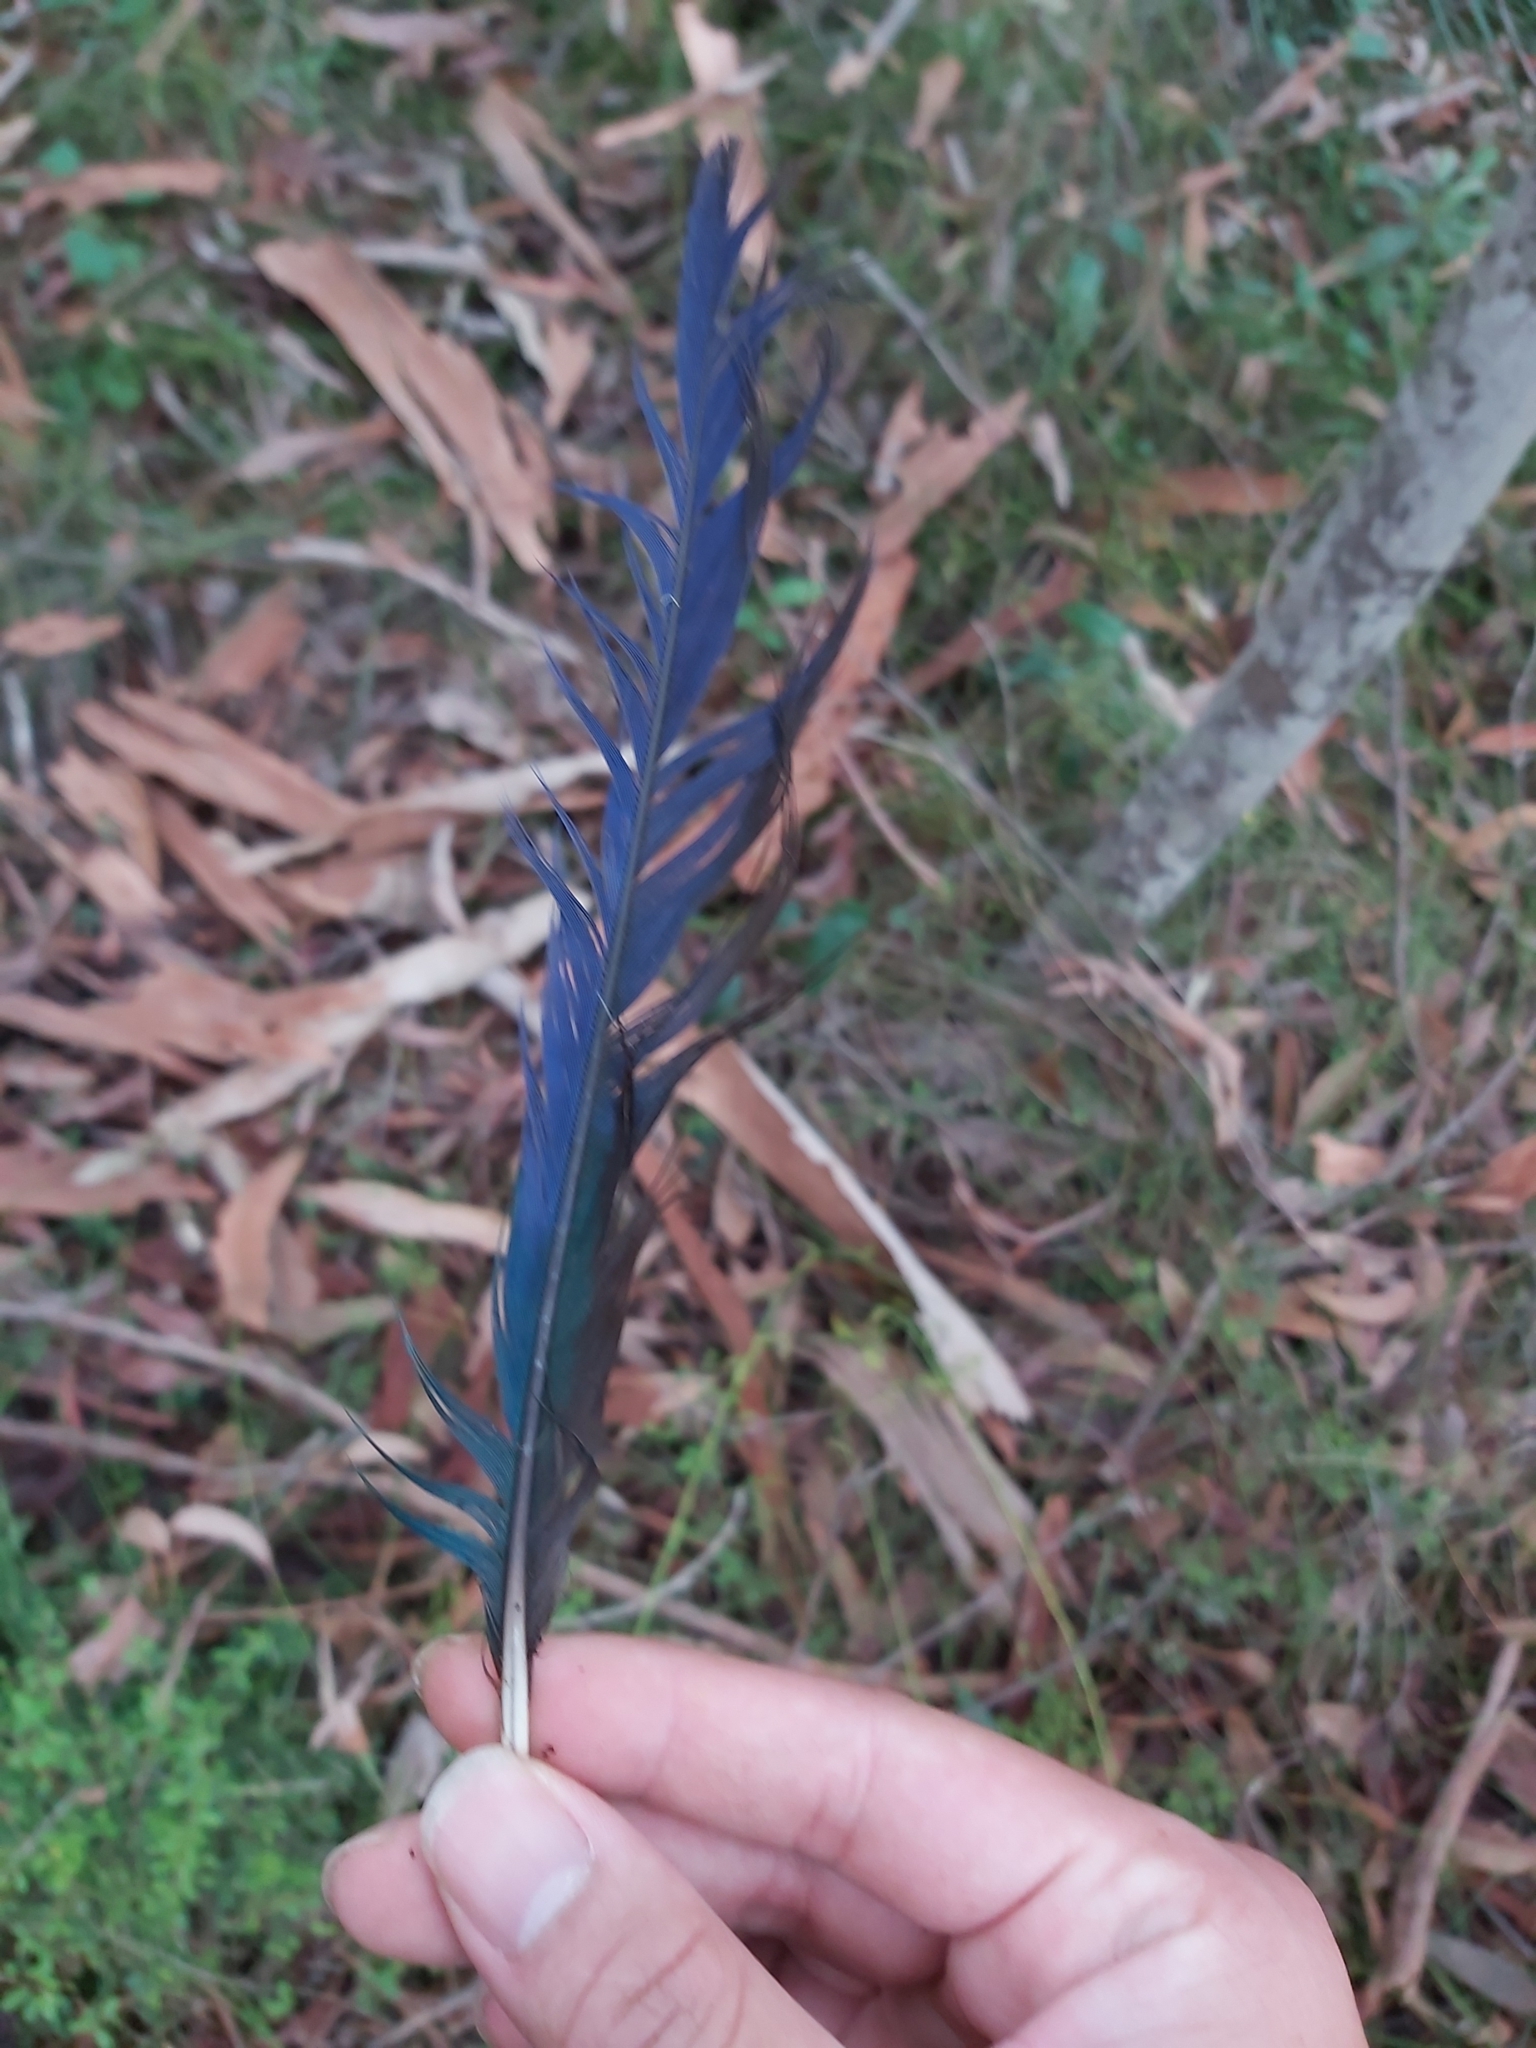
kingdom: Animalia
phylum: Chordata
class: Aves
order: Psittaciformes
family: Psittacidae
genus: Platycercus
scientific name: Platycercus eximius
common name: Eastern rosella
